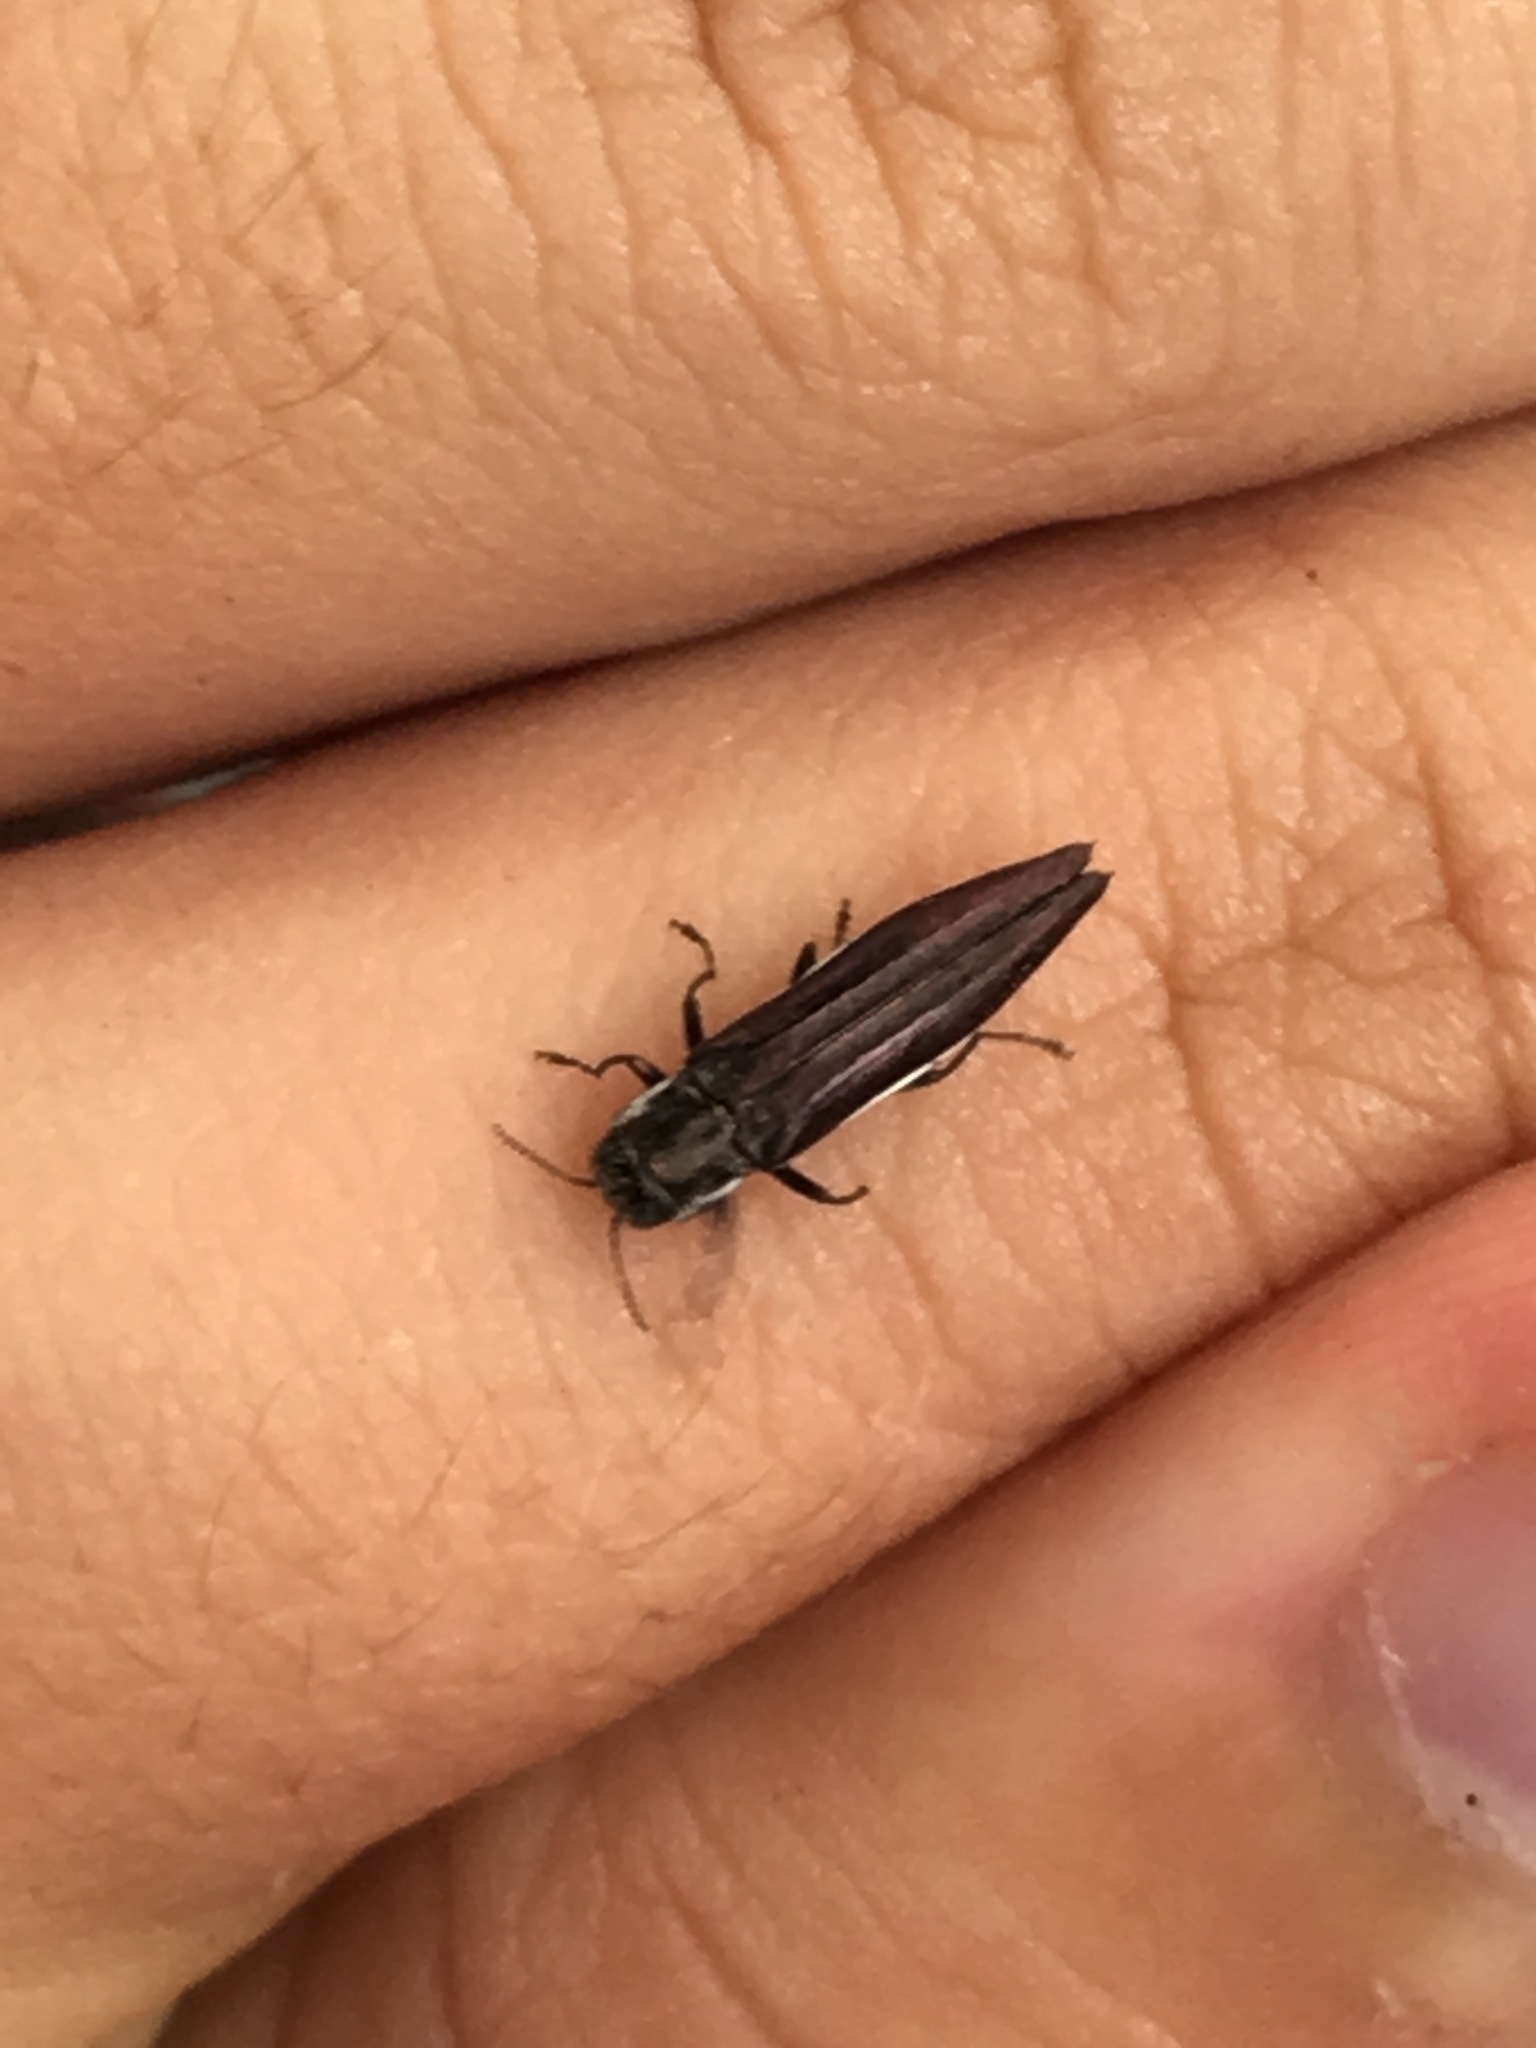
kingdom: Animalia
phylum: Arthropoda
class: Insecta
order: Coleoptera
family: Buprestidae
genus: Agrilus
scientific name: Agrilus ferrisi
